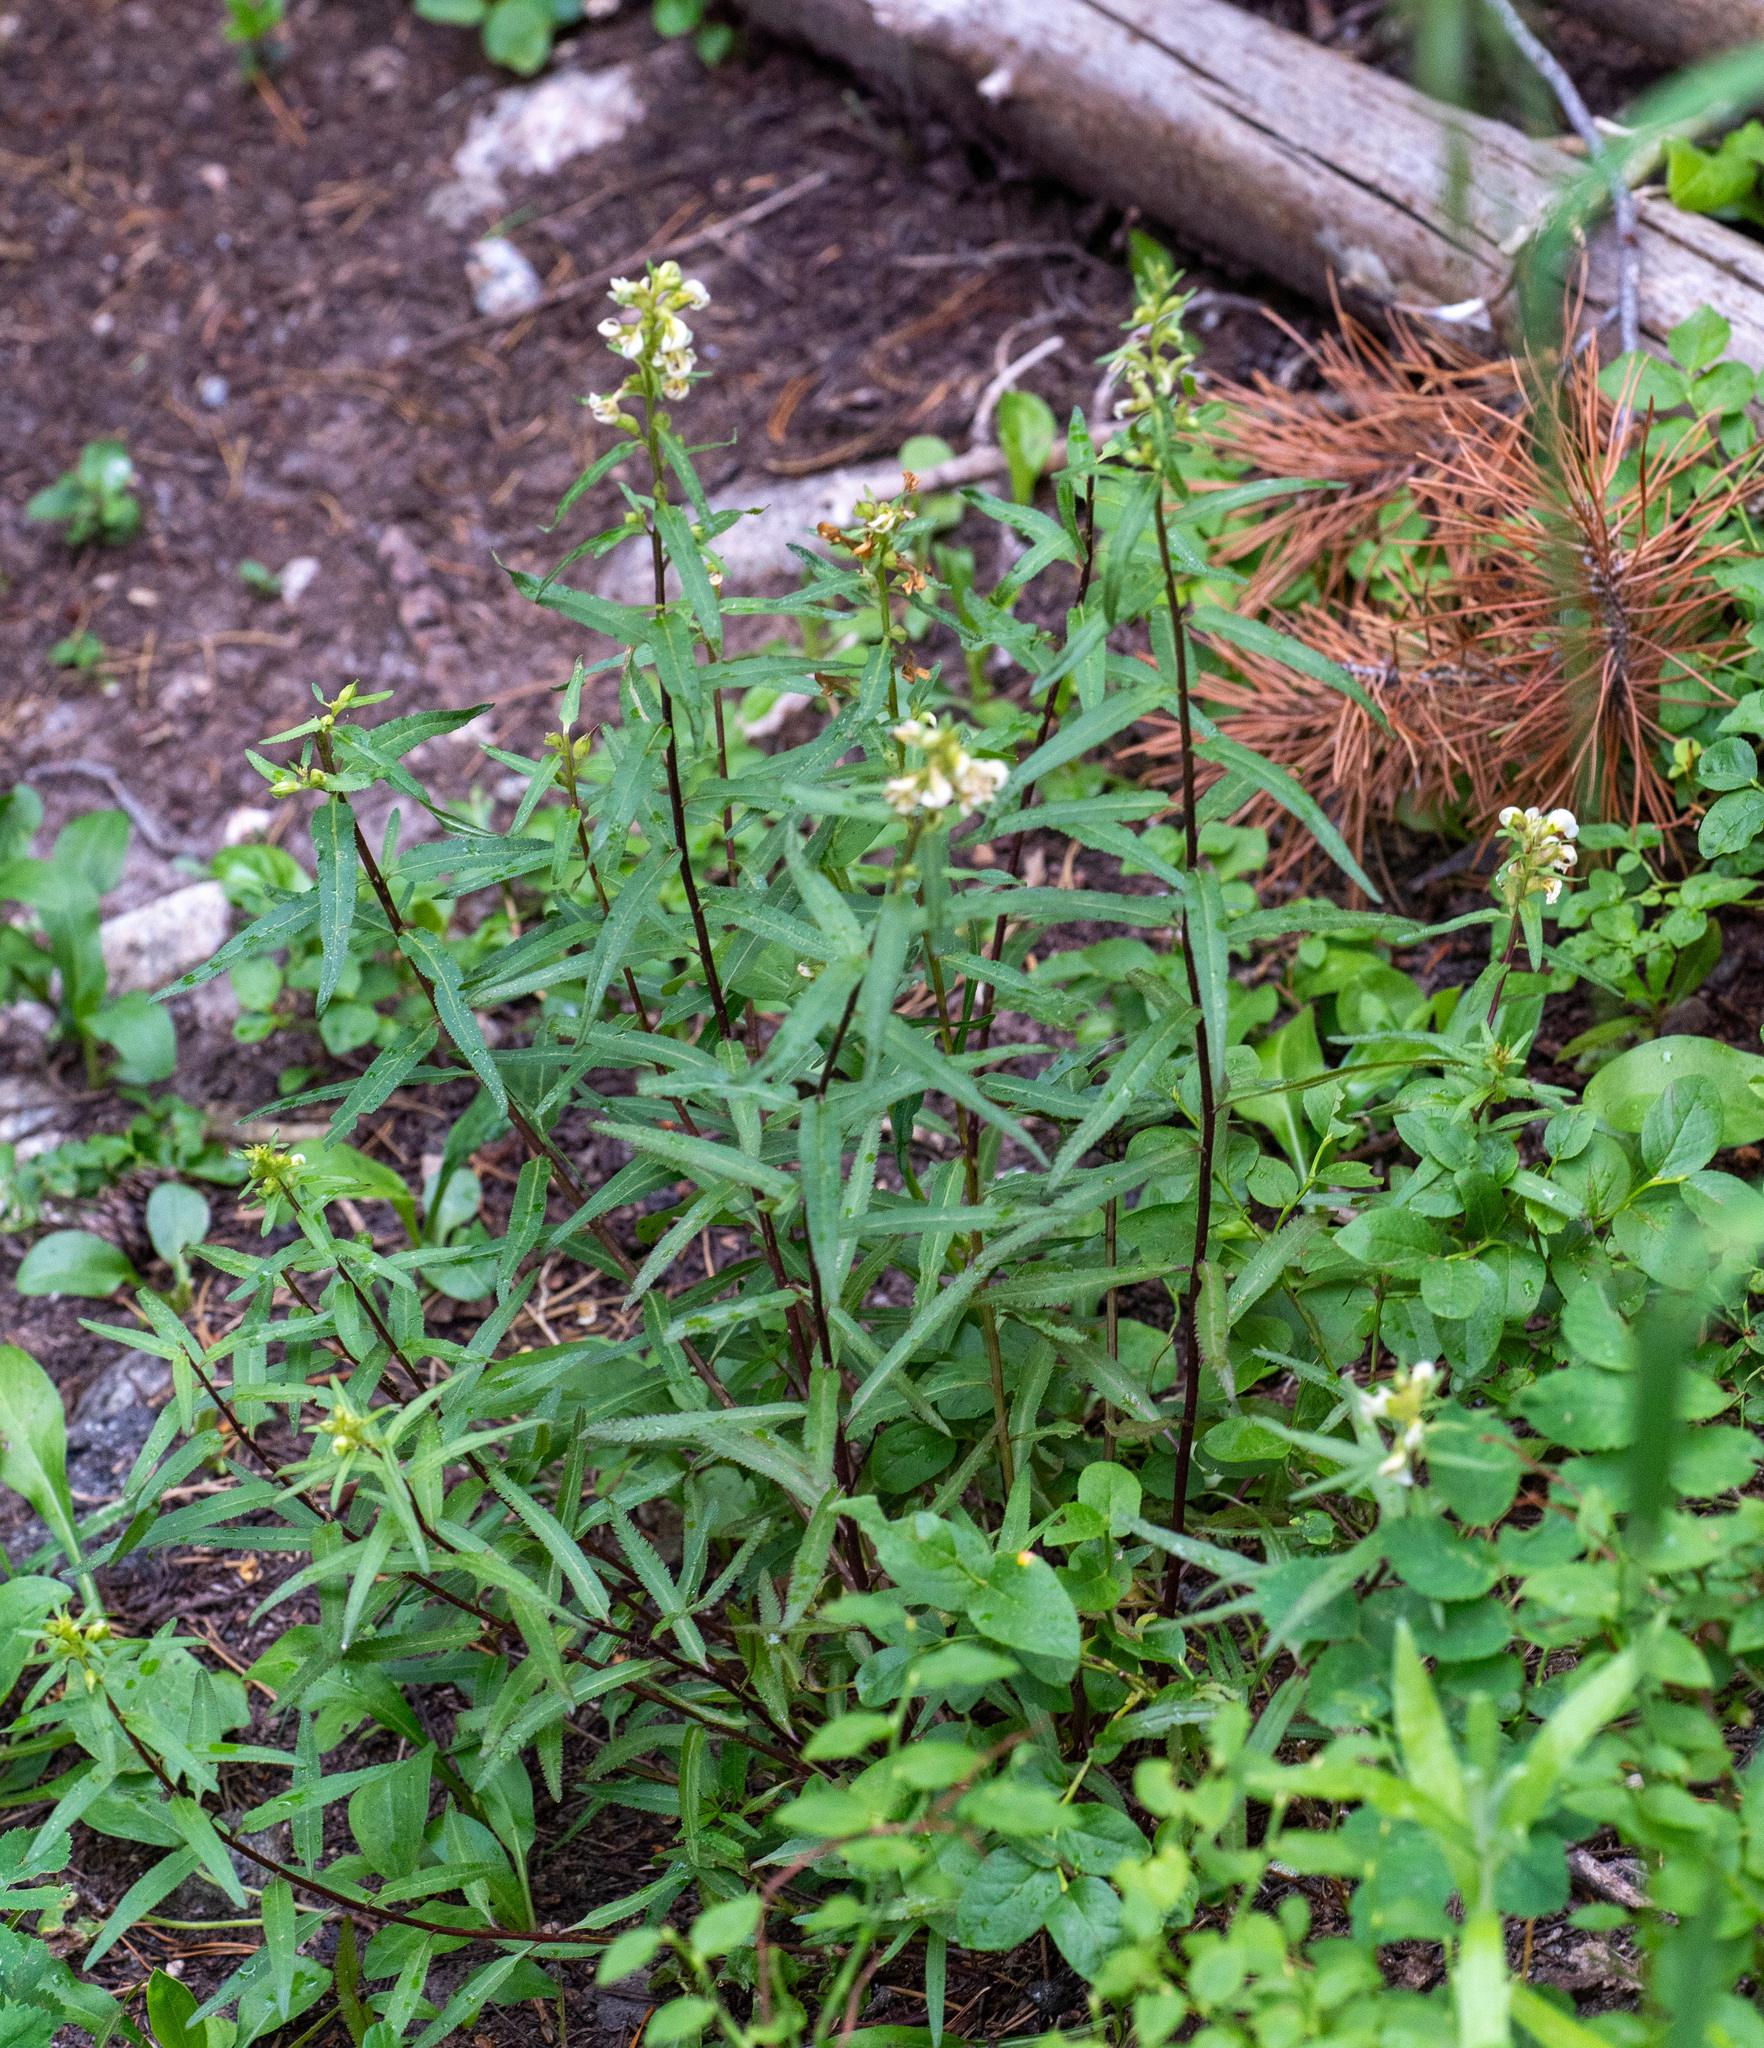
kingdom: Plantae
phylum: Tracheophyta
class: Magnoliopsida
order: Lamiales
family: Orobanchaceae
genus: Pedicularis
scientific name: Pedicularis racemosa
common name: Leafy lousewort
